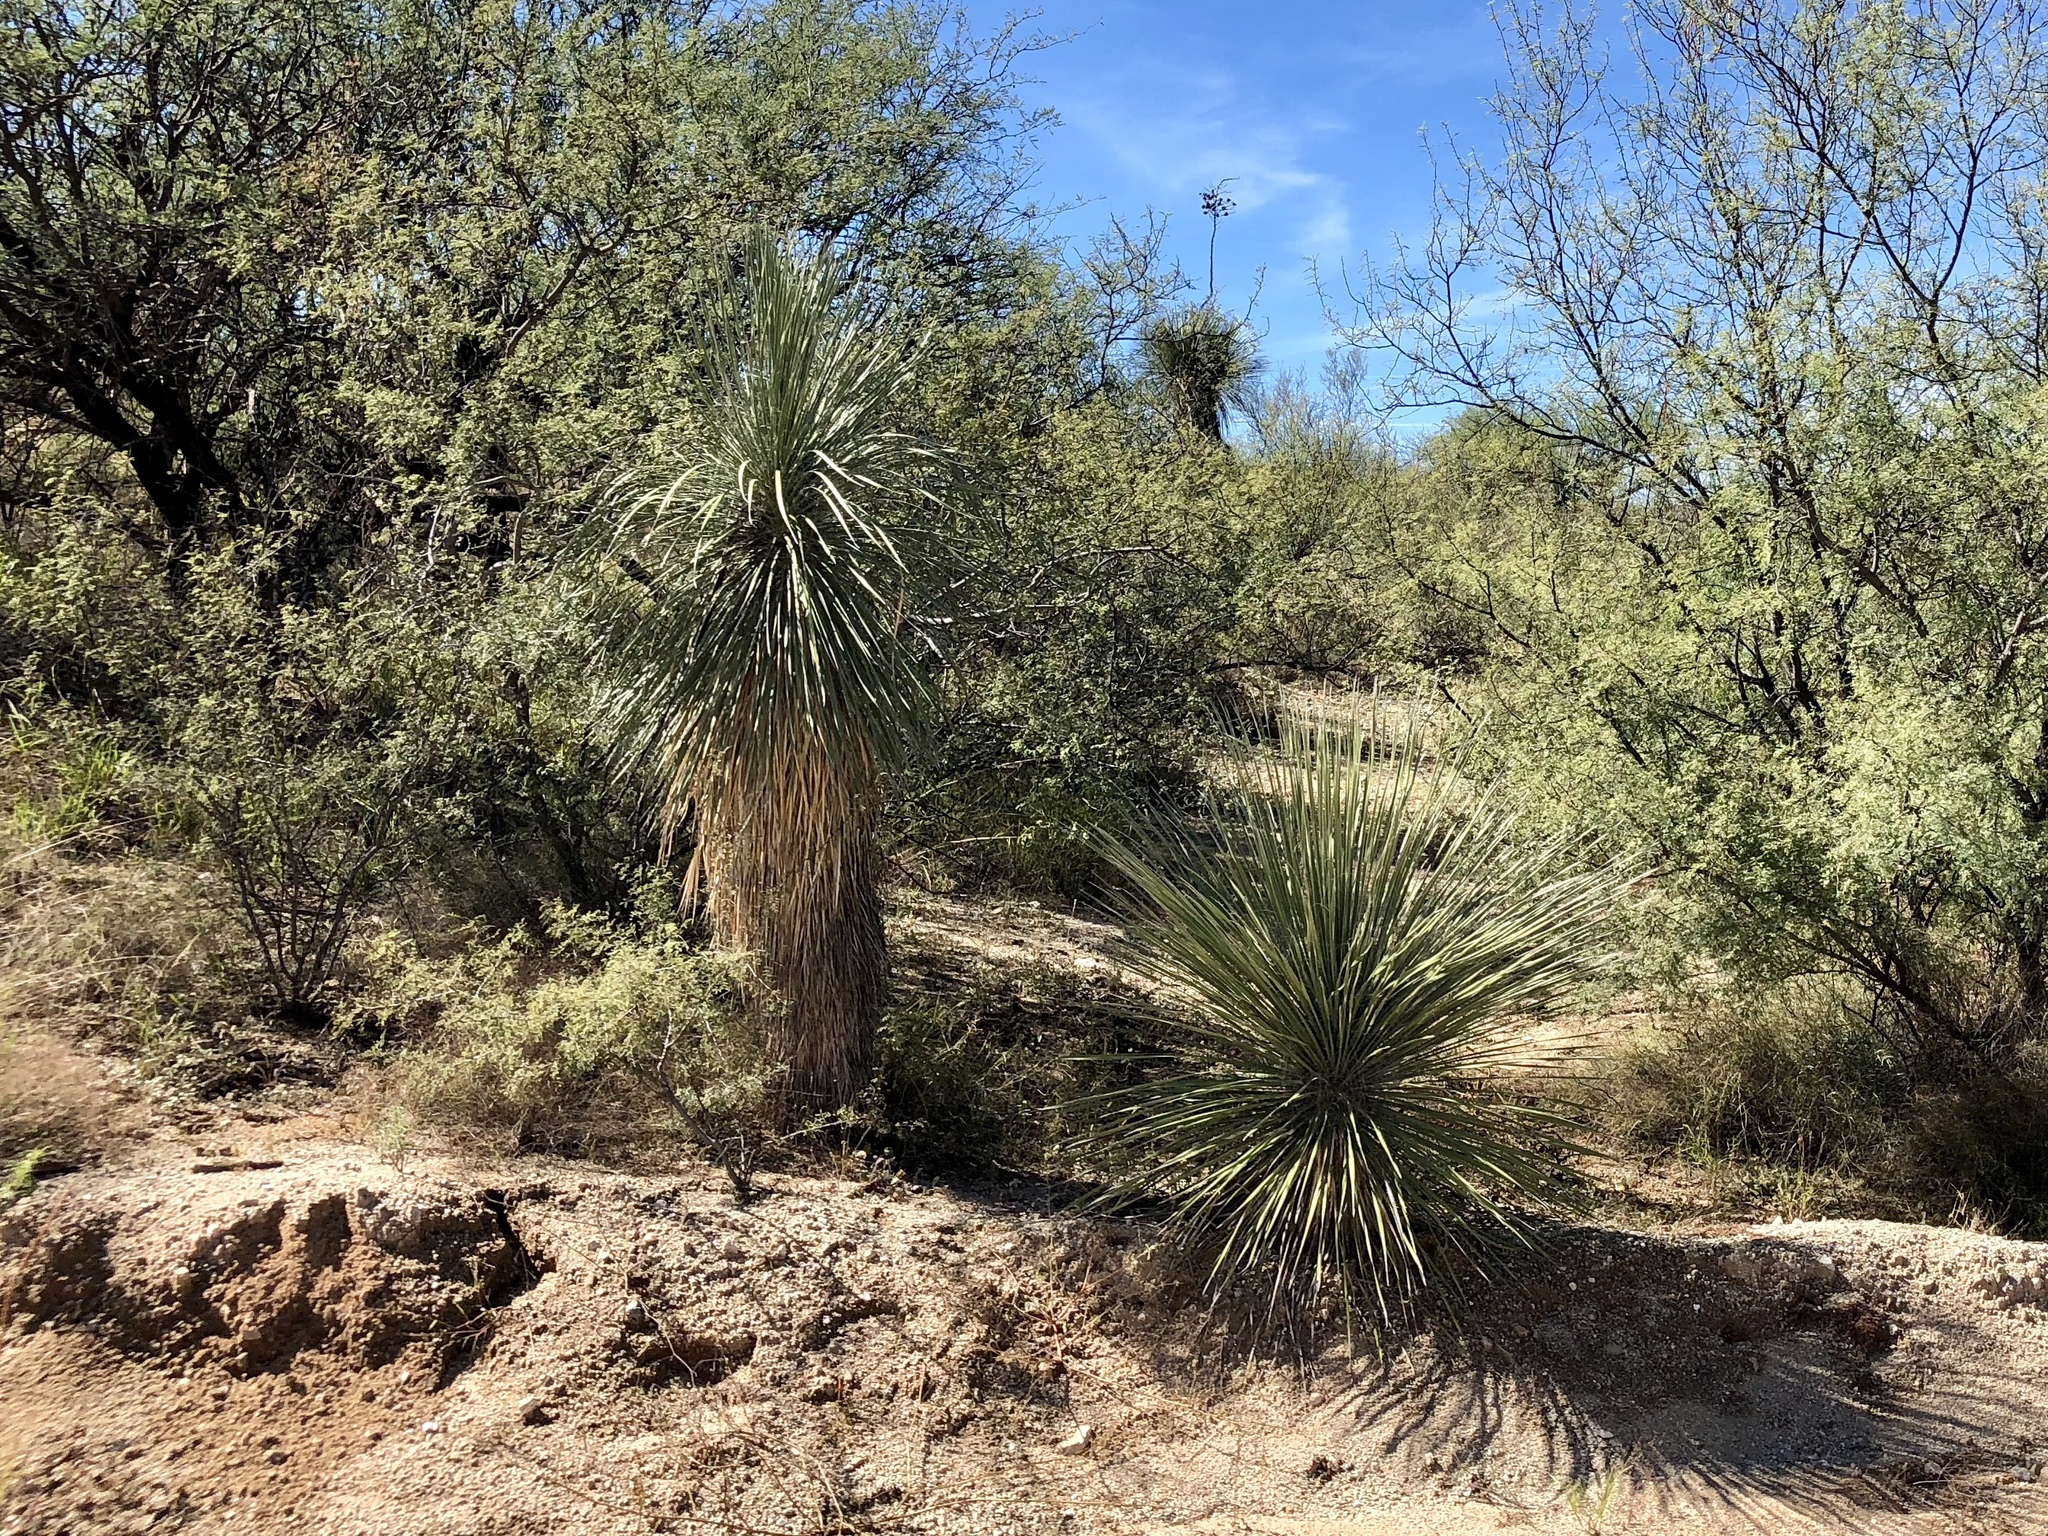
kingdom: Plantae
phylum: Tracheophyta
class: Liliopsida
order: Asparagales
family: Asparagaceae
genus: Yucca
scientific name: Yucca elata
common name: Palmella
